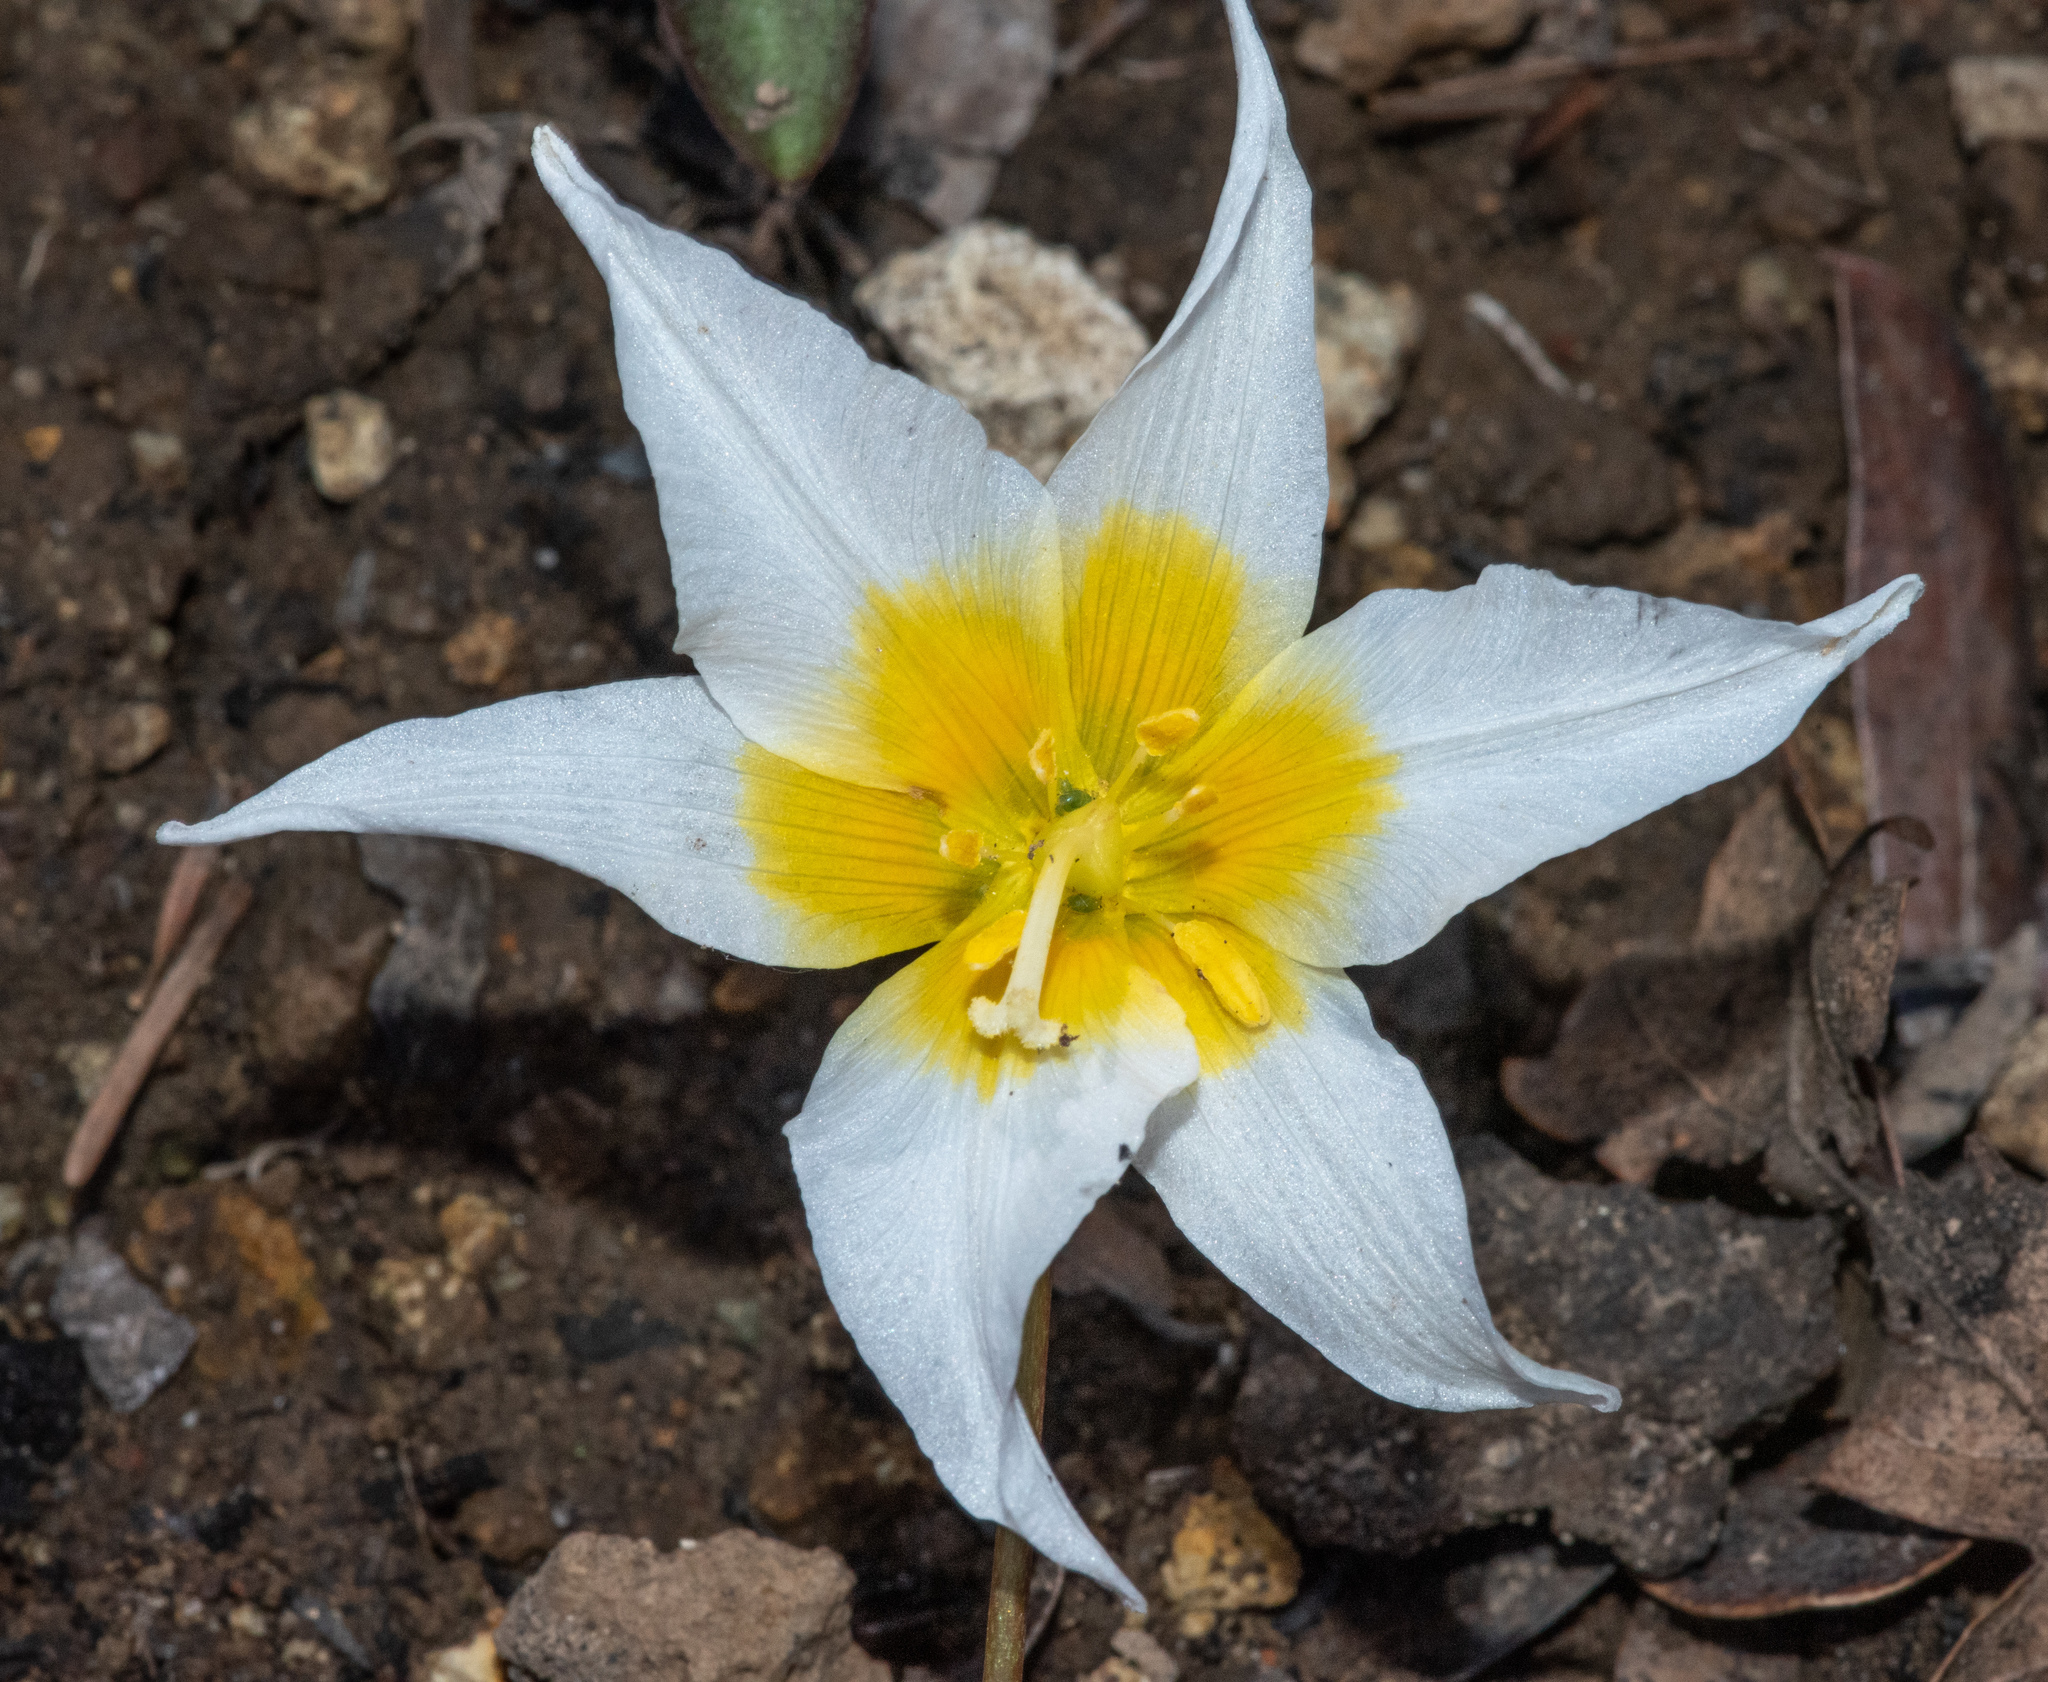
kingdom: Plantae
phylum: Tracheophyta
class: Liliopsida
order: Liliales
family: Liliaceae
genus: Erythronium
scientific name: Erythronium helenae
